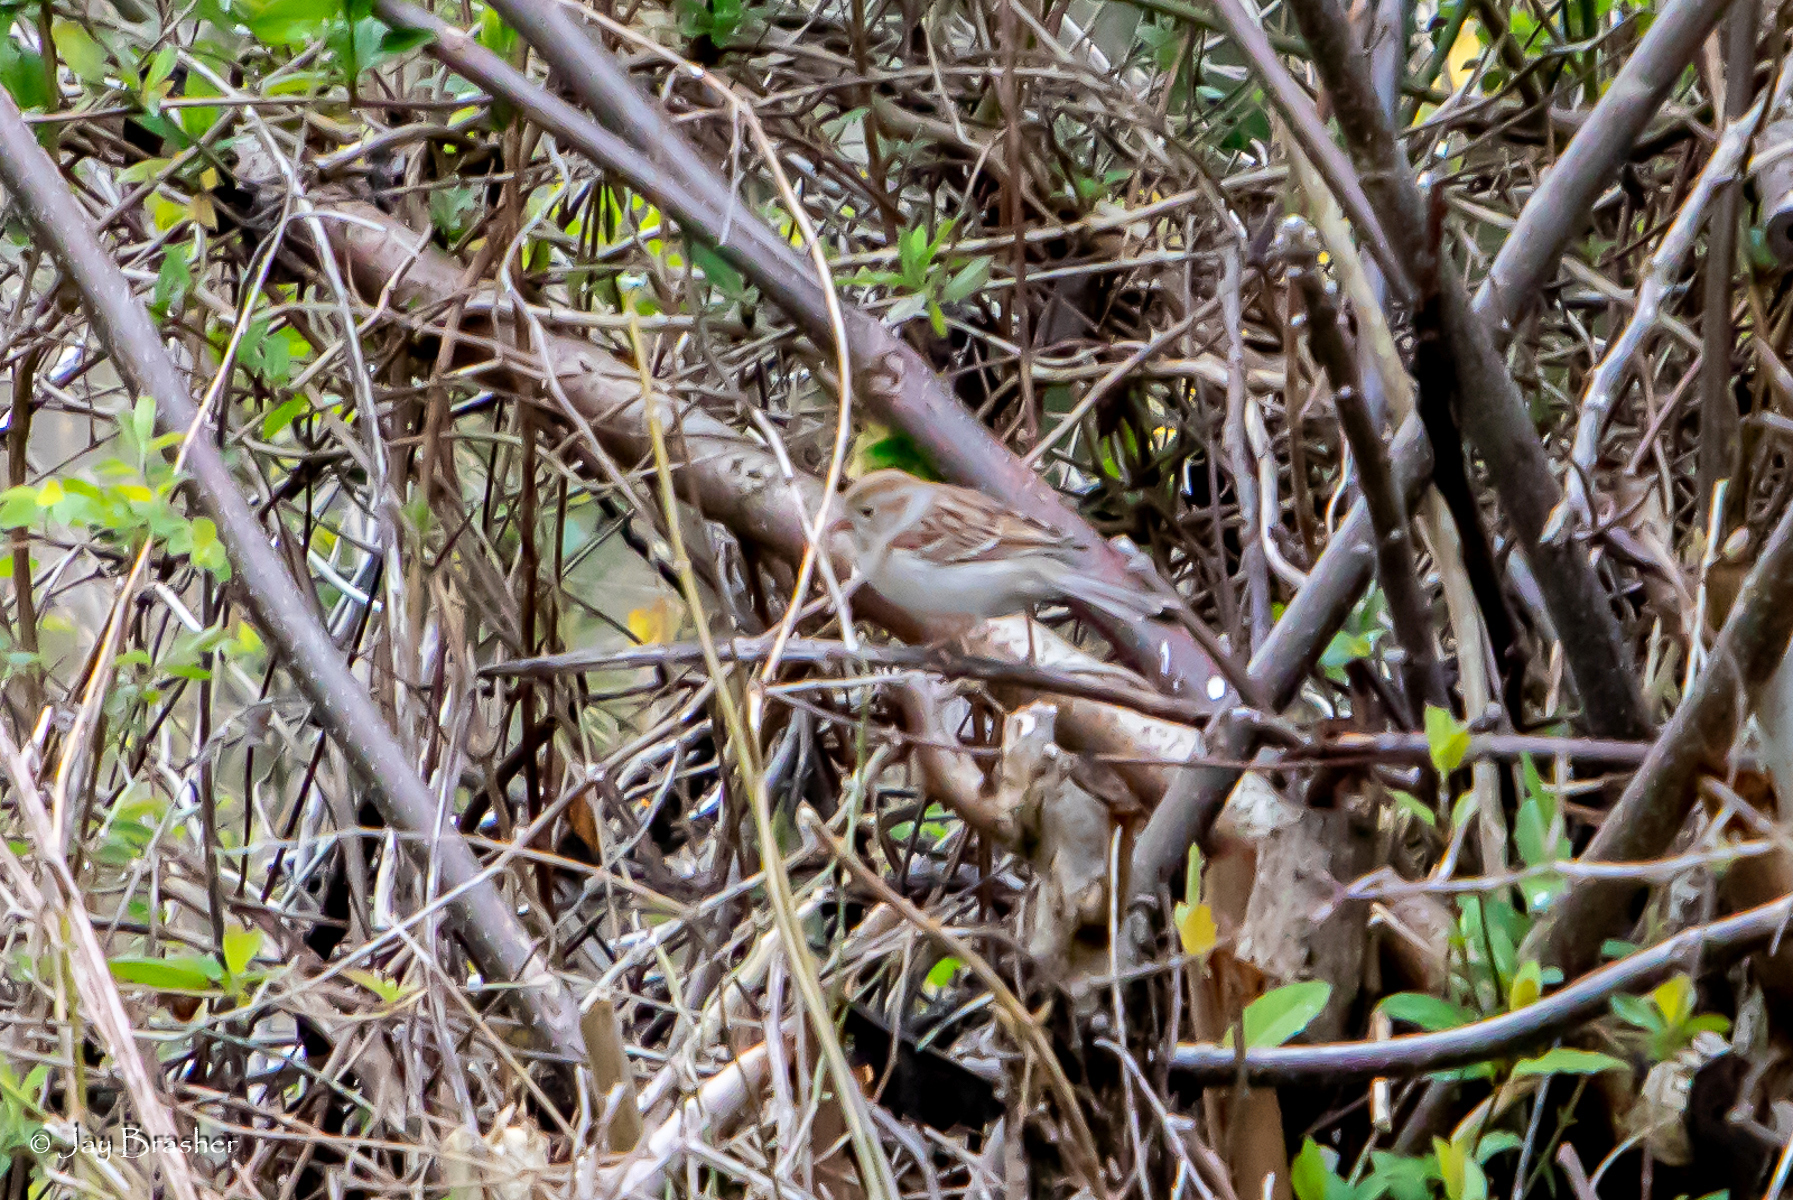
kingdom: Animalia
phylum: Chordata
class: Aves
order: Passeriformes
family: Passerellidae
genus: Spizella
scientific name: Spizella pusilla
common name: Field sparrow
